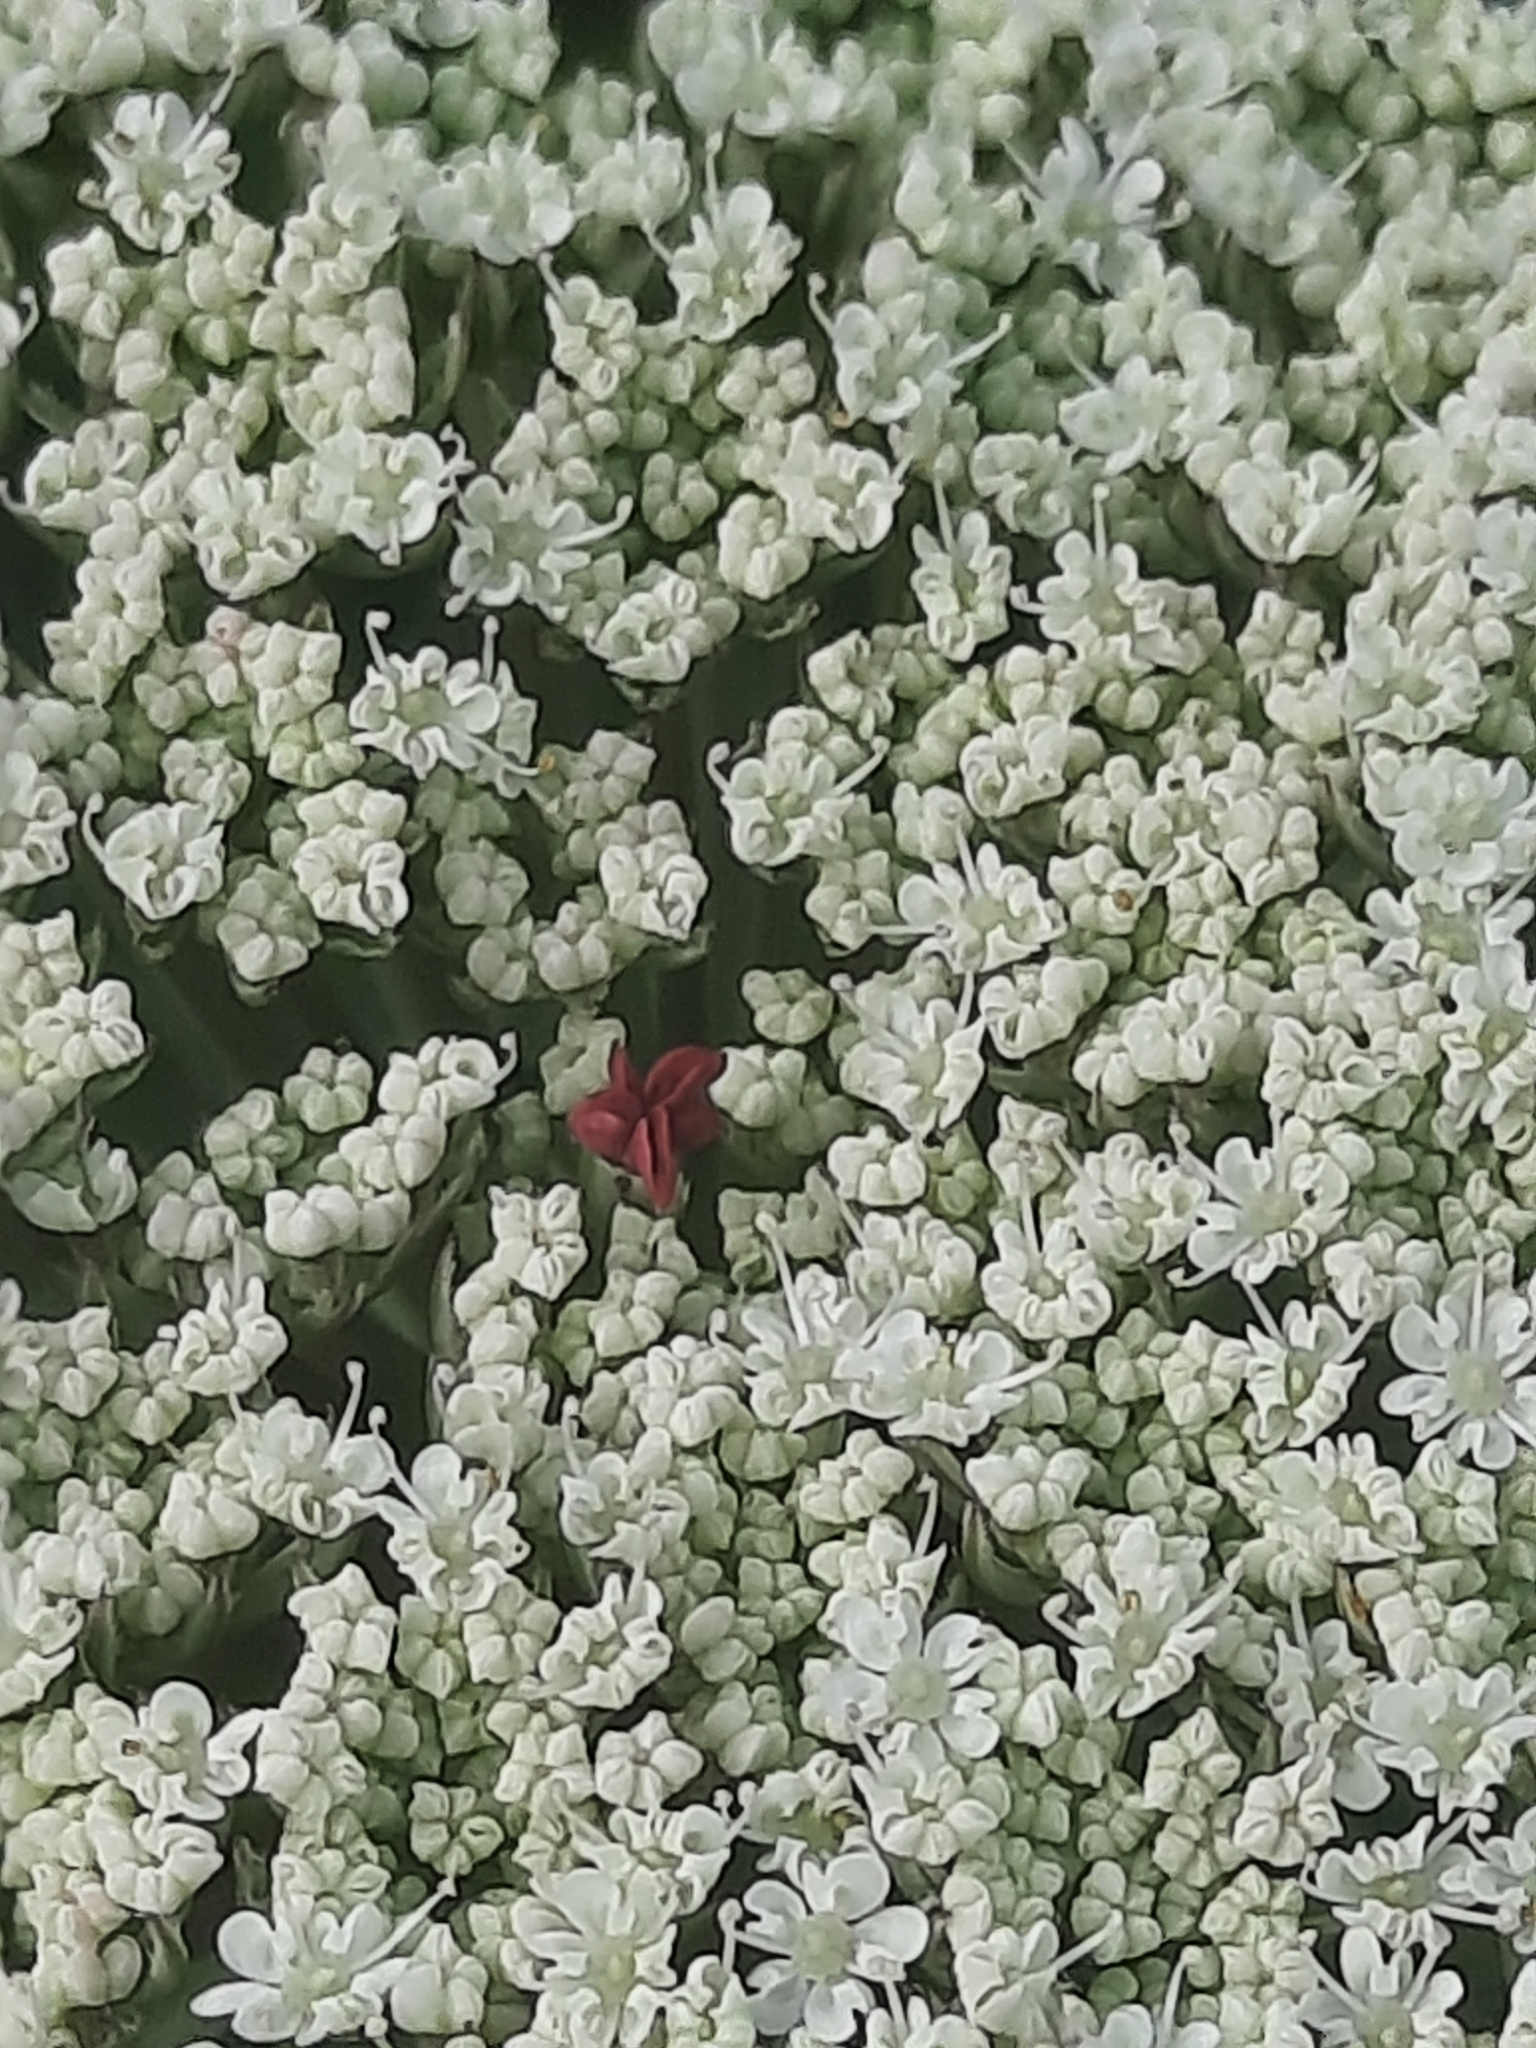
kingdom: Plantae
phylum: Tracheophyta
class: Magnoliopsida
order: Apiales
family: Apiaceae
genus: Daucus
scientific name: Daucus carota
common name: Wild carrot
